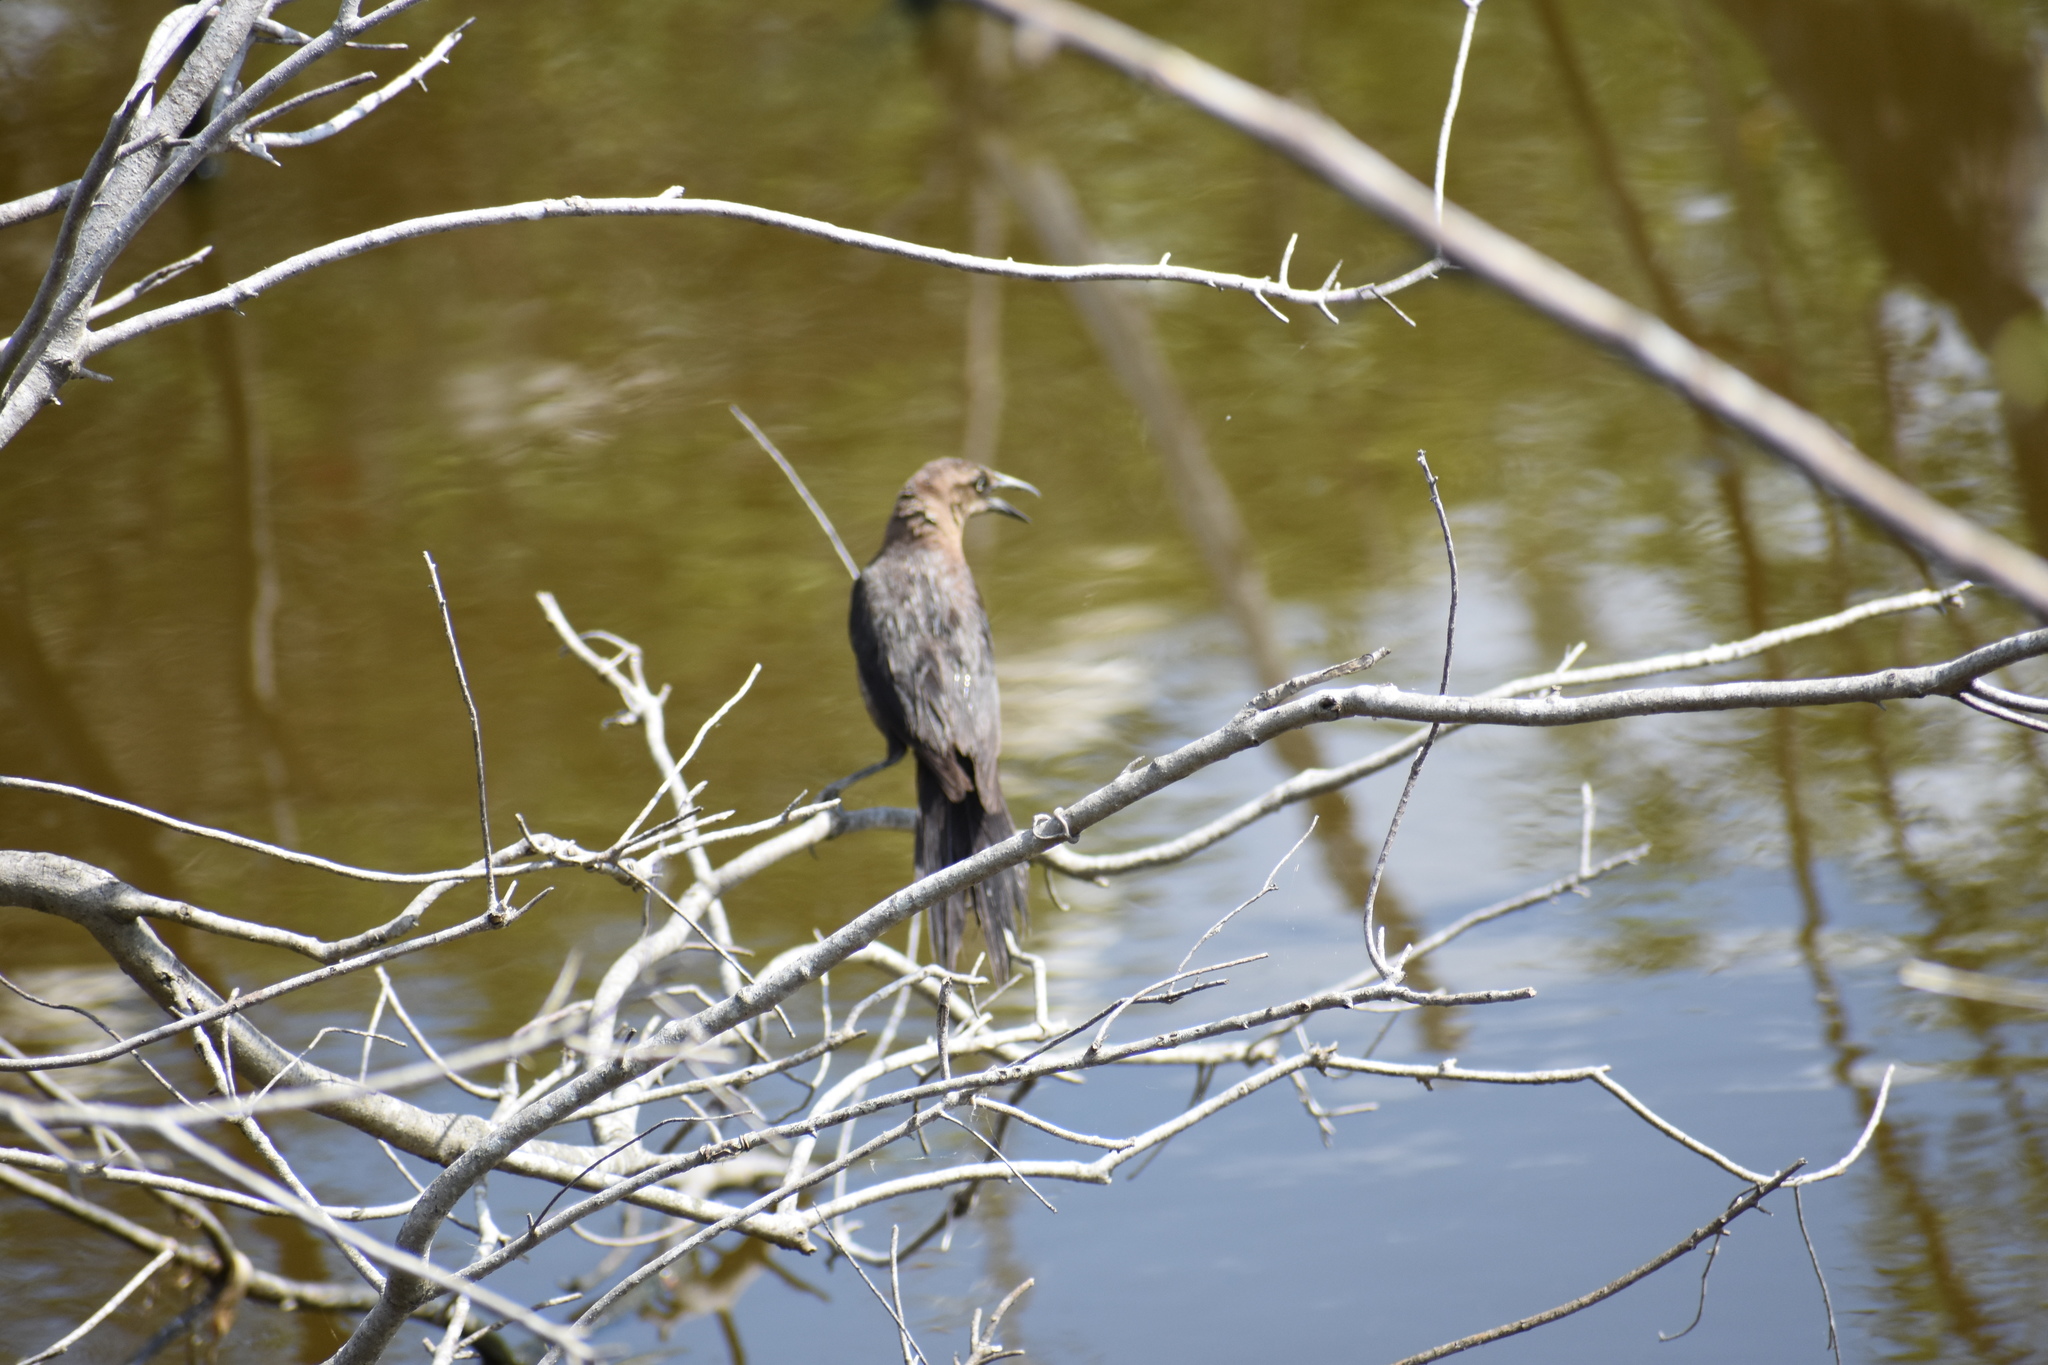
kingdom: Animalia
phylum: Chordata
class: Aves
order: Passeriformes
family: Icteridae
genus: Quiscalus
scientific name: Quiscalus major
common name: Boat-tailed grackle
